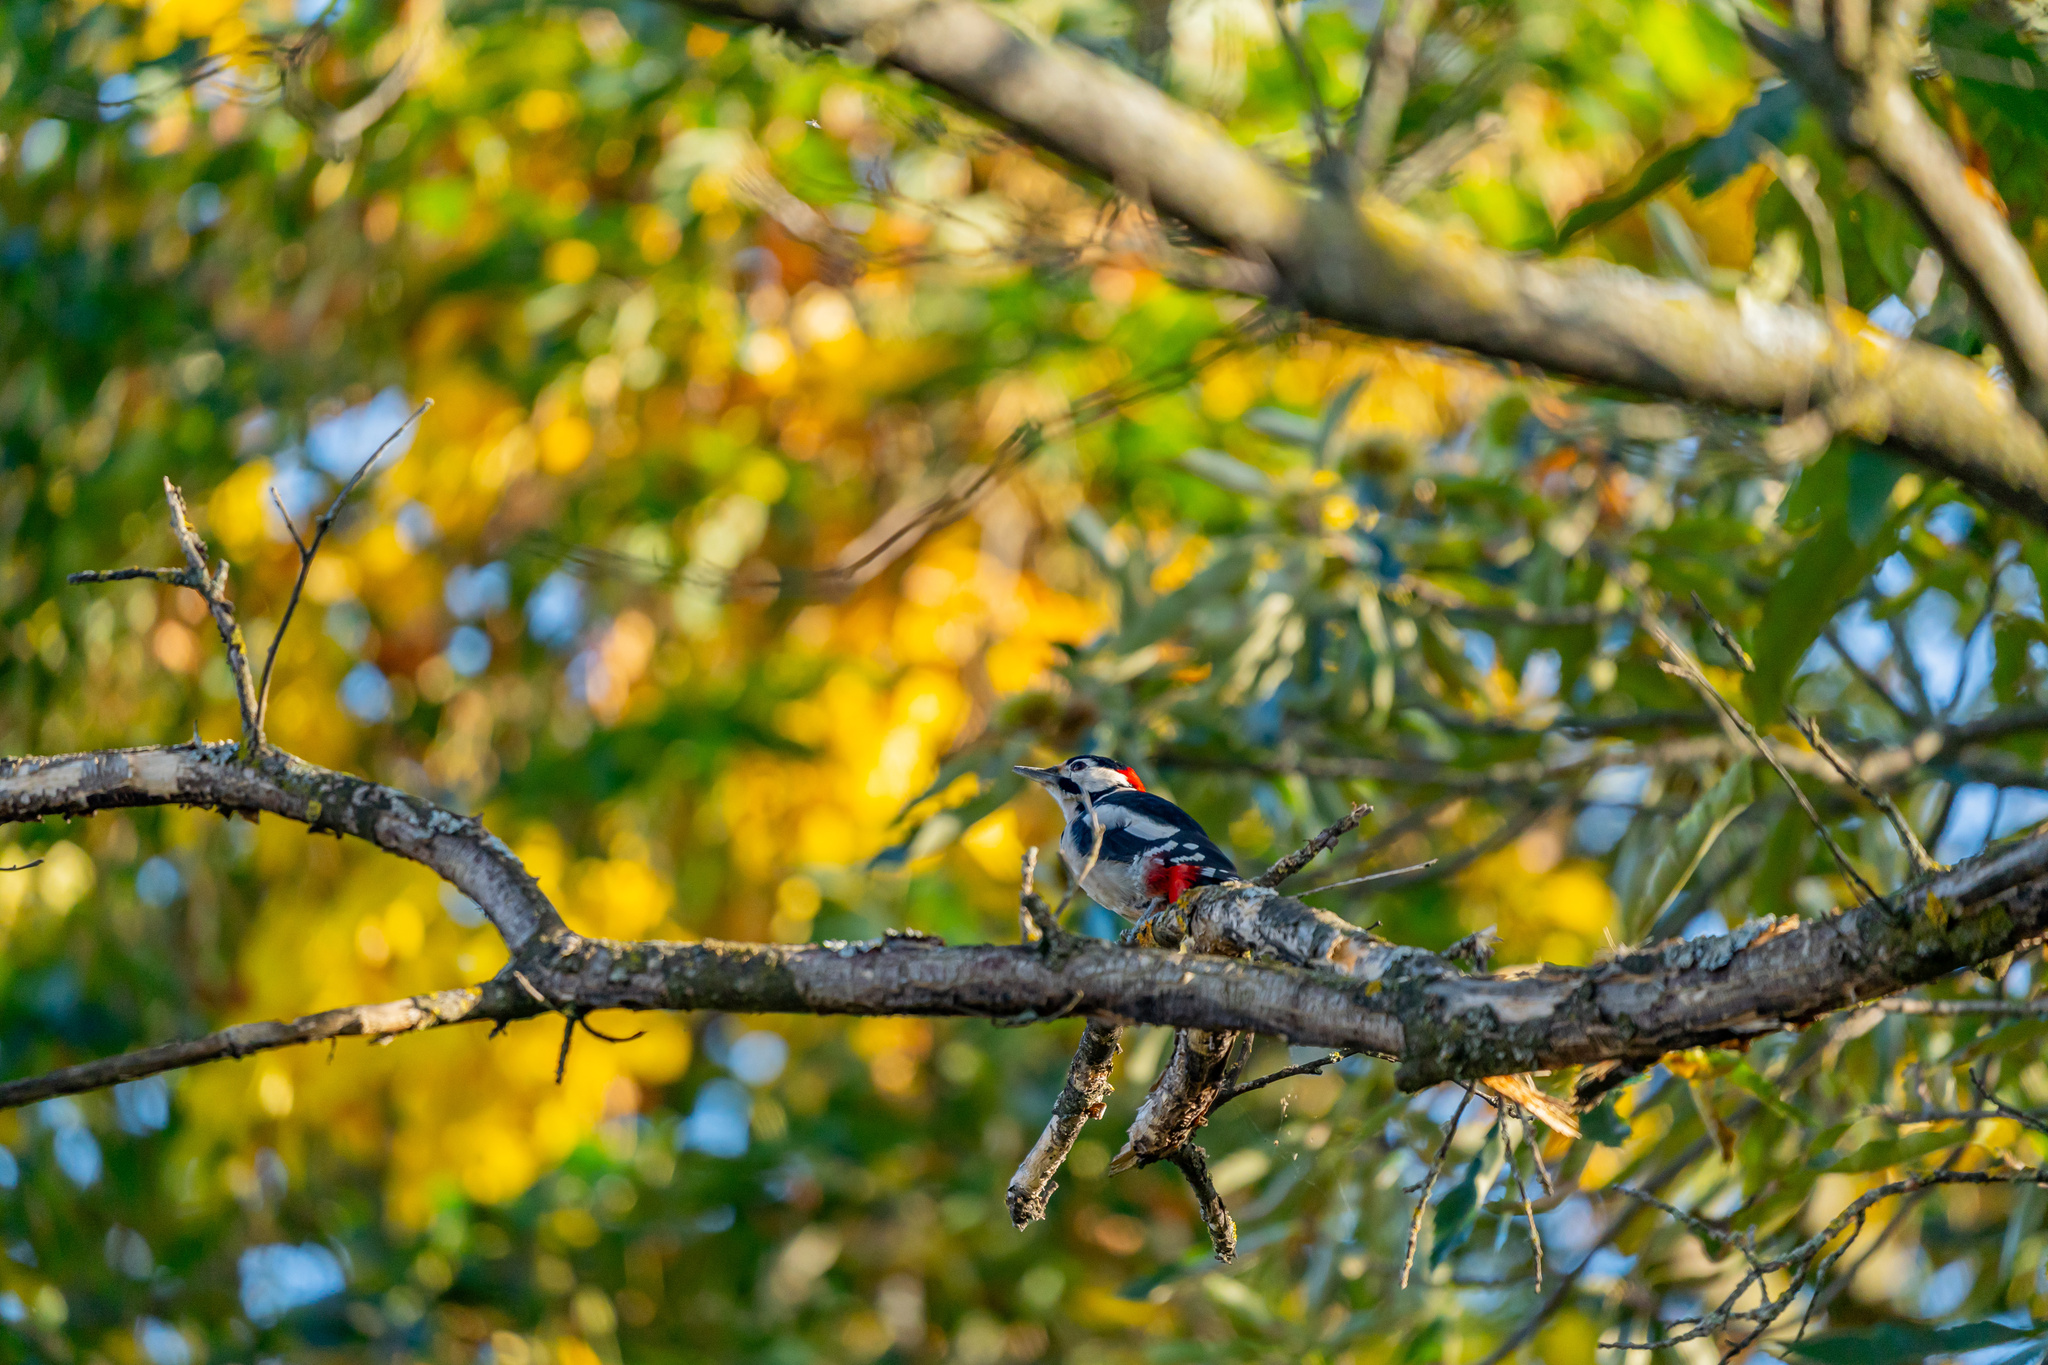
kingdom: Animalia
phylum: Chordata
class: Aves
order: Piciformes
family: Picidae
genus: Dendrocopos
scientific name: Dendrocopos major
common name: Great spotted woodpecker
